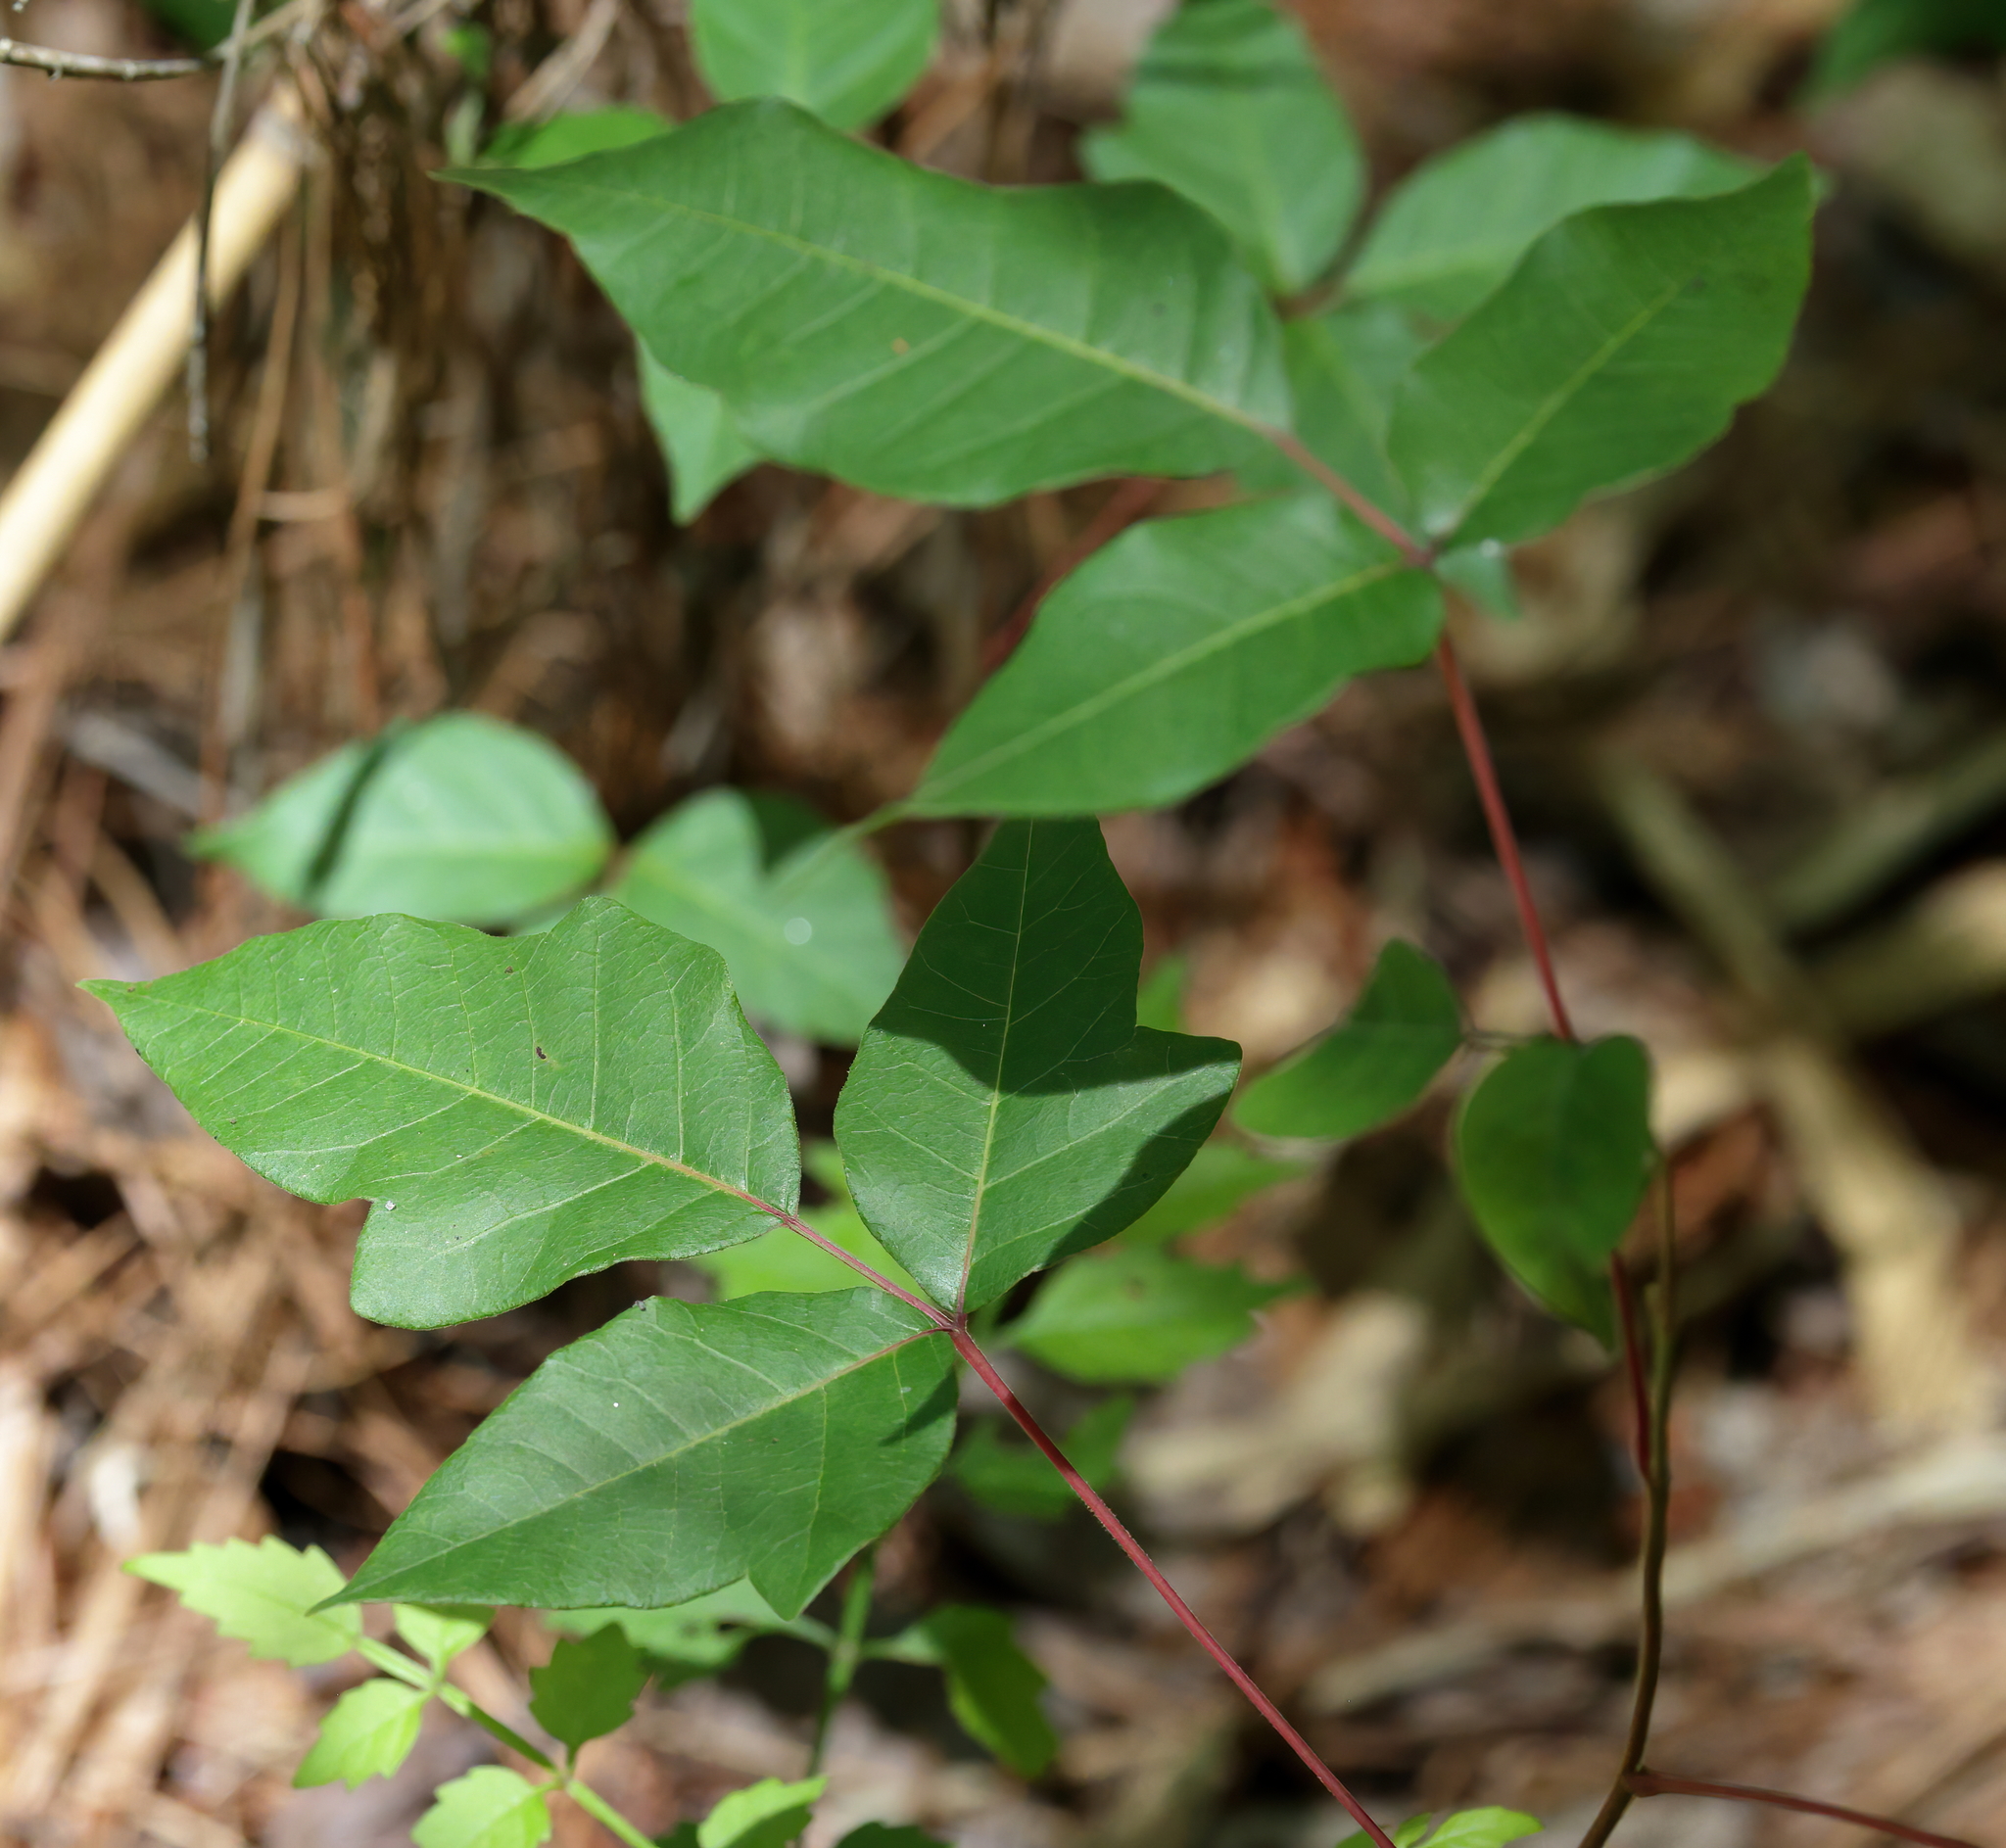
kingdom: Plantae
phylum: Tracheophyta
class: Magnoliopsida
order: Sapindales
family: Anacardiaceae
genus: Toxicodendron
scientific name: Toxicodendron radicans
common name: Poison ivy
